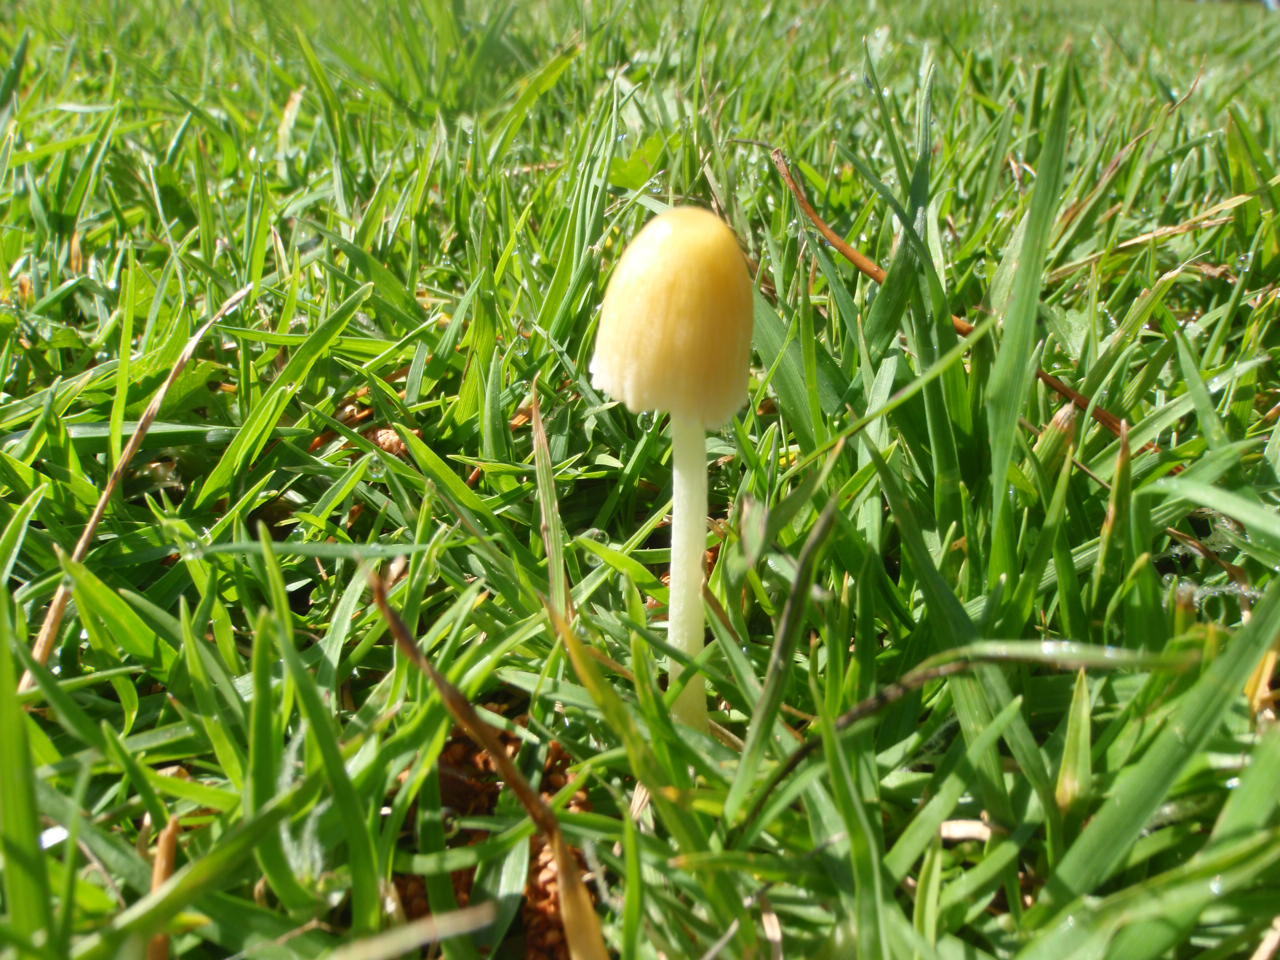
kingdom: Fungi
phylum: Basidiomycota
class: Agaricomycetes
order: Agaricales
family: Bolbitiaceae
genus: Bolbitius
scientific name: Bolbitius titubans
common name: Yellow fieldcap
